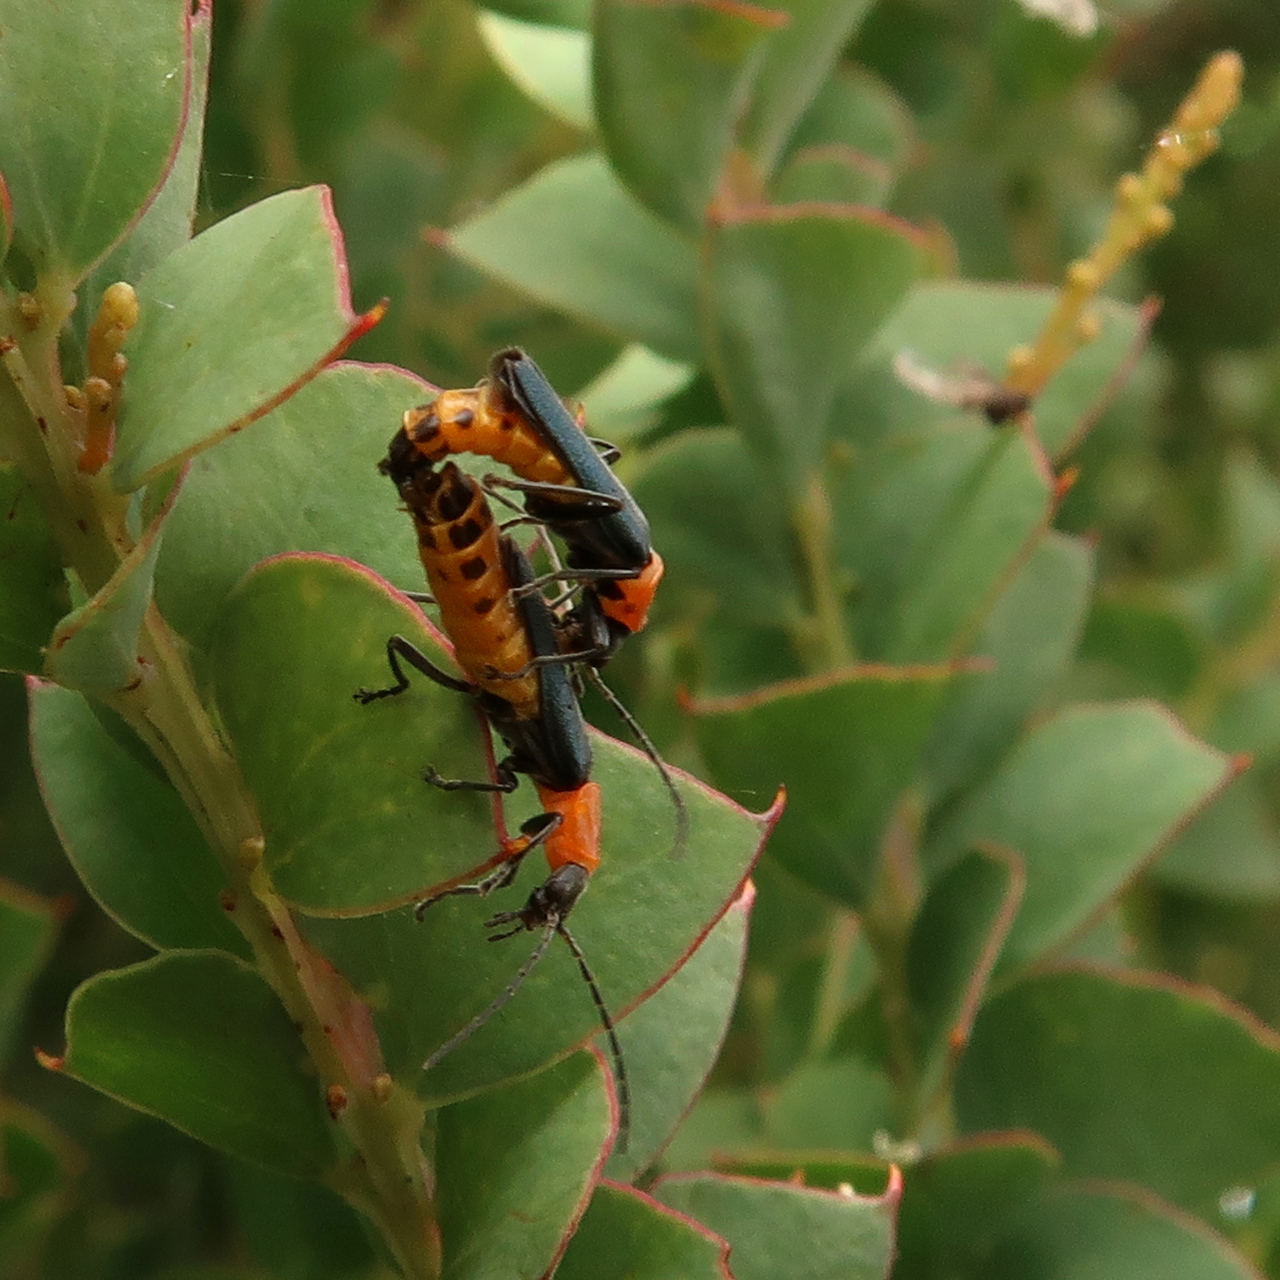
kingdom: Animalia
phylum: Arthropoda
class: Insecta
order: Coleoptera
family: Cantharidae
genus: Chauliognathus
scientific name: Chauliognathus
